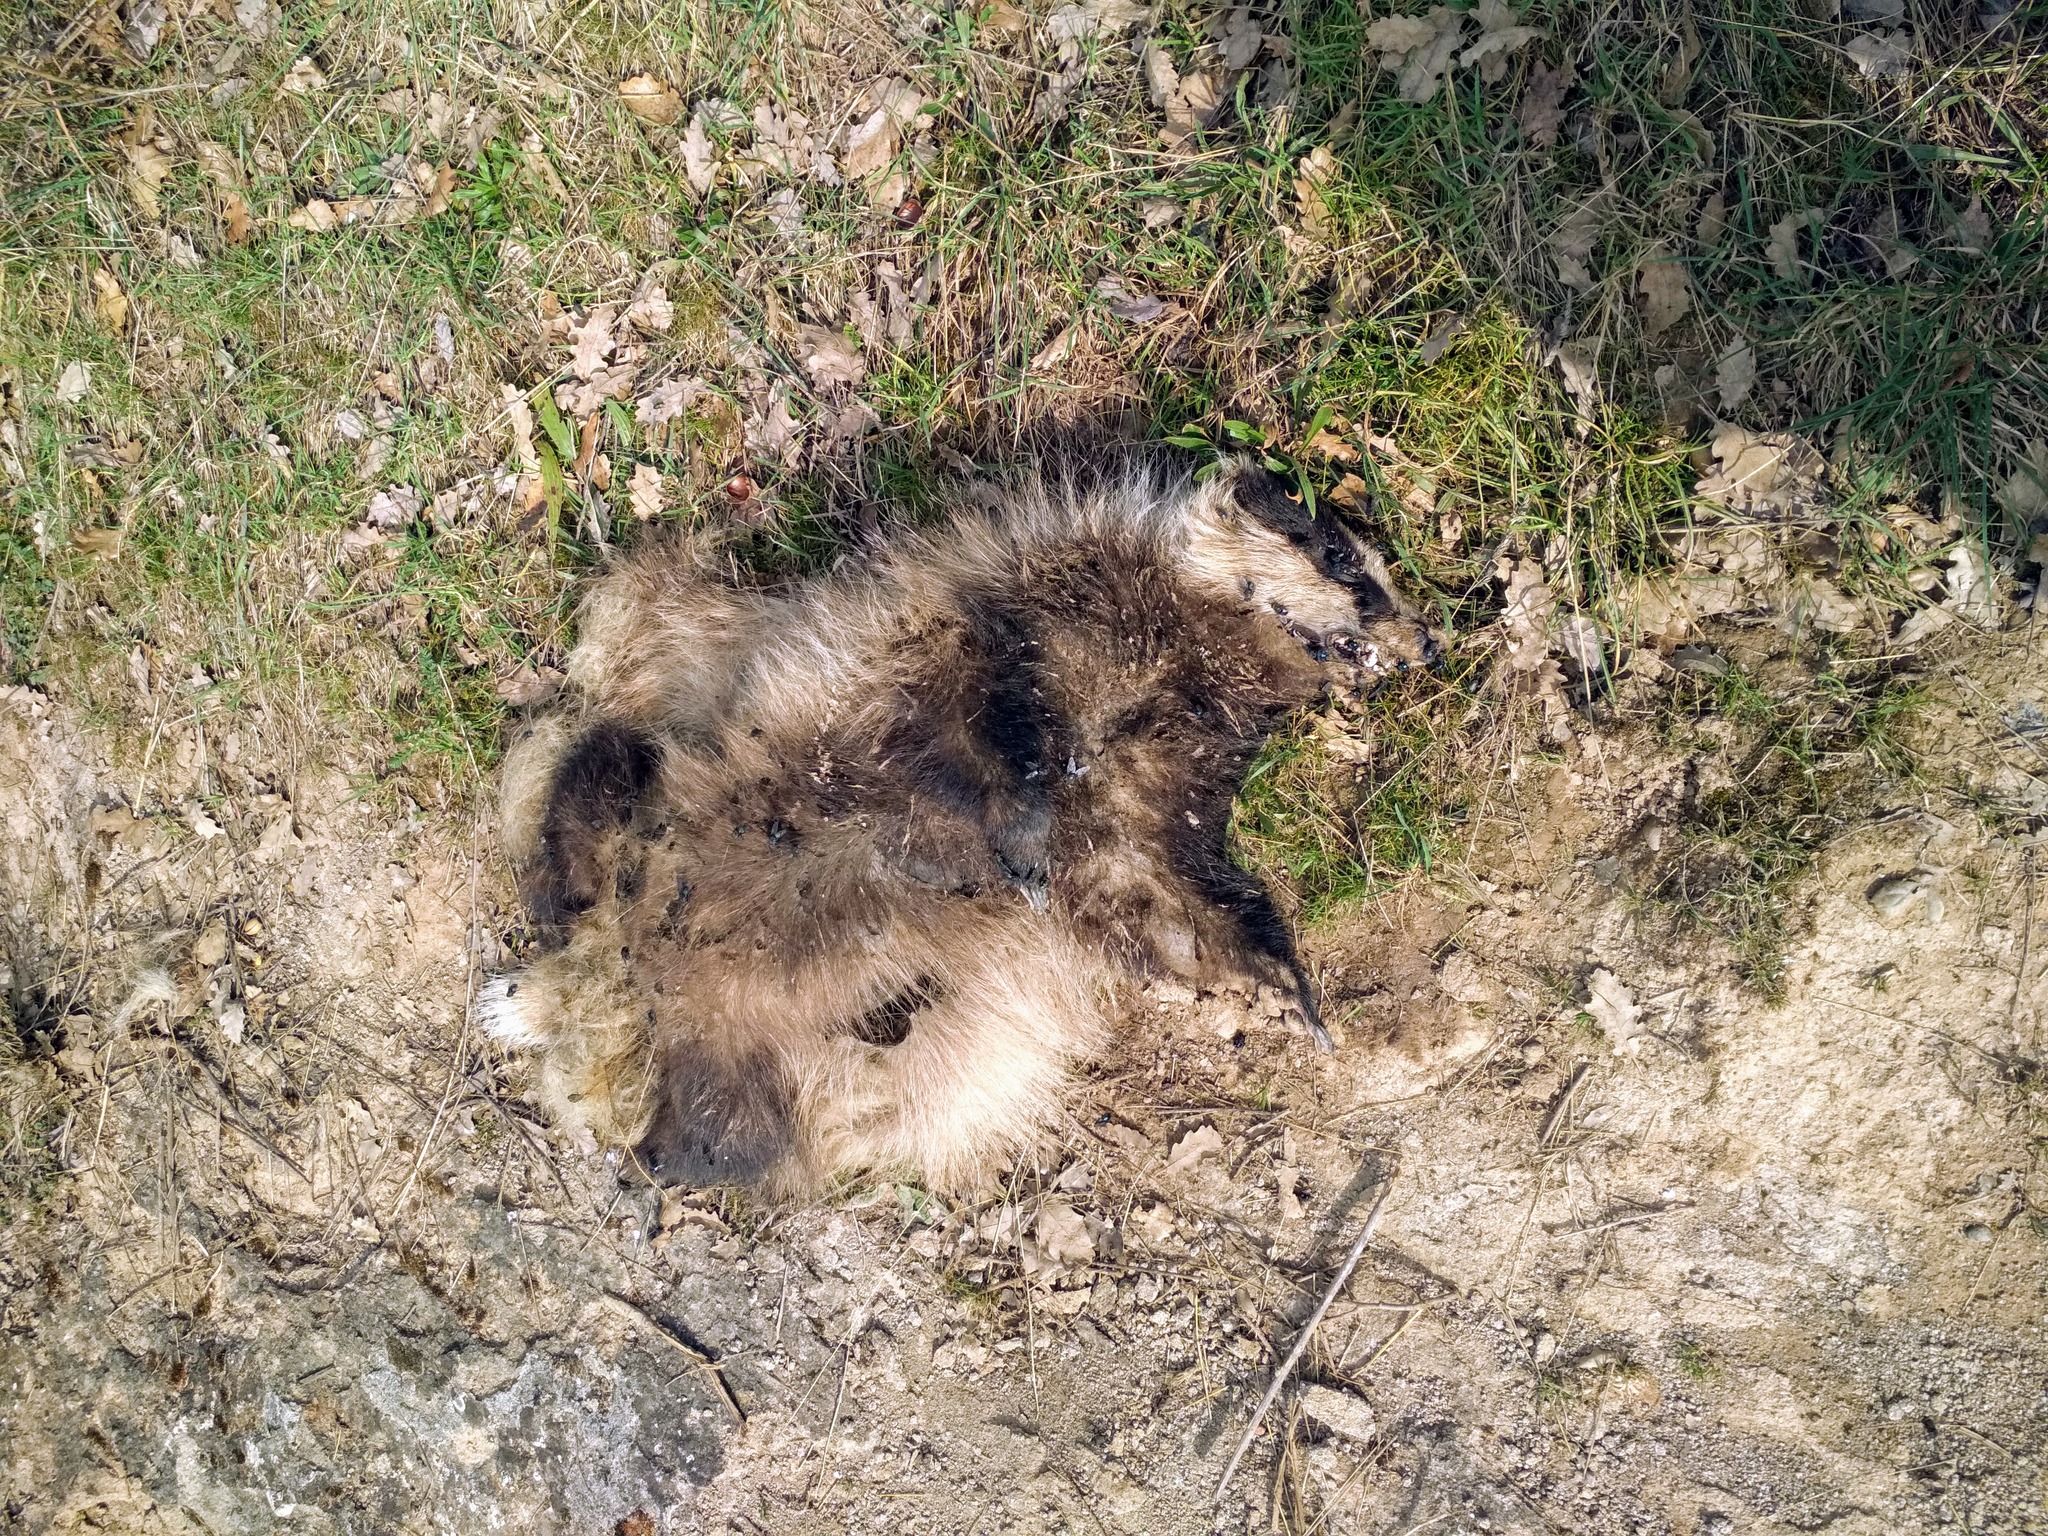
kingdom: Animalia
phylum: Chordata
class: Mammalia
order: Carnivora
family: Mustelidae
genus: Meles
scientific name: Meles meles
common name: Eurasian badger
